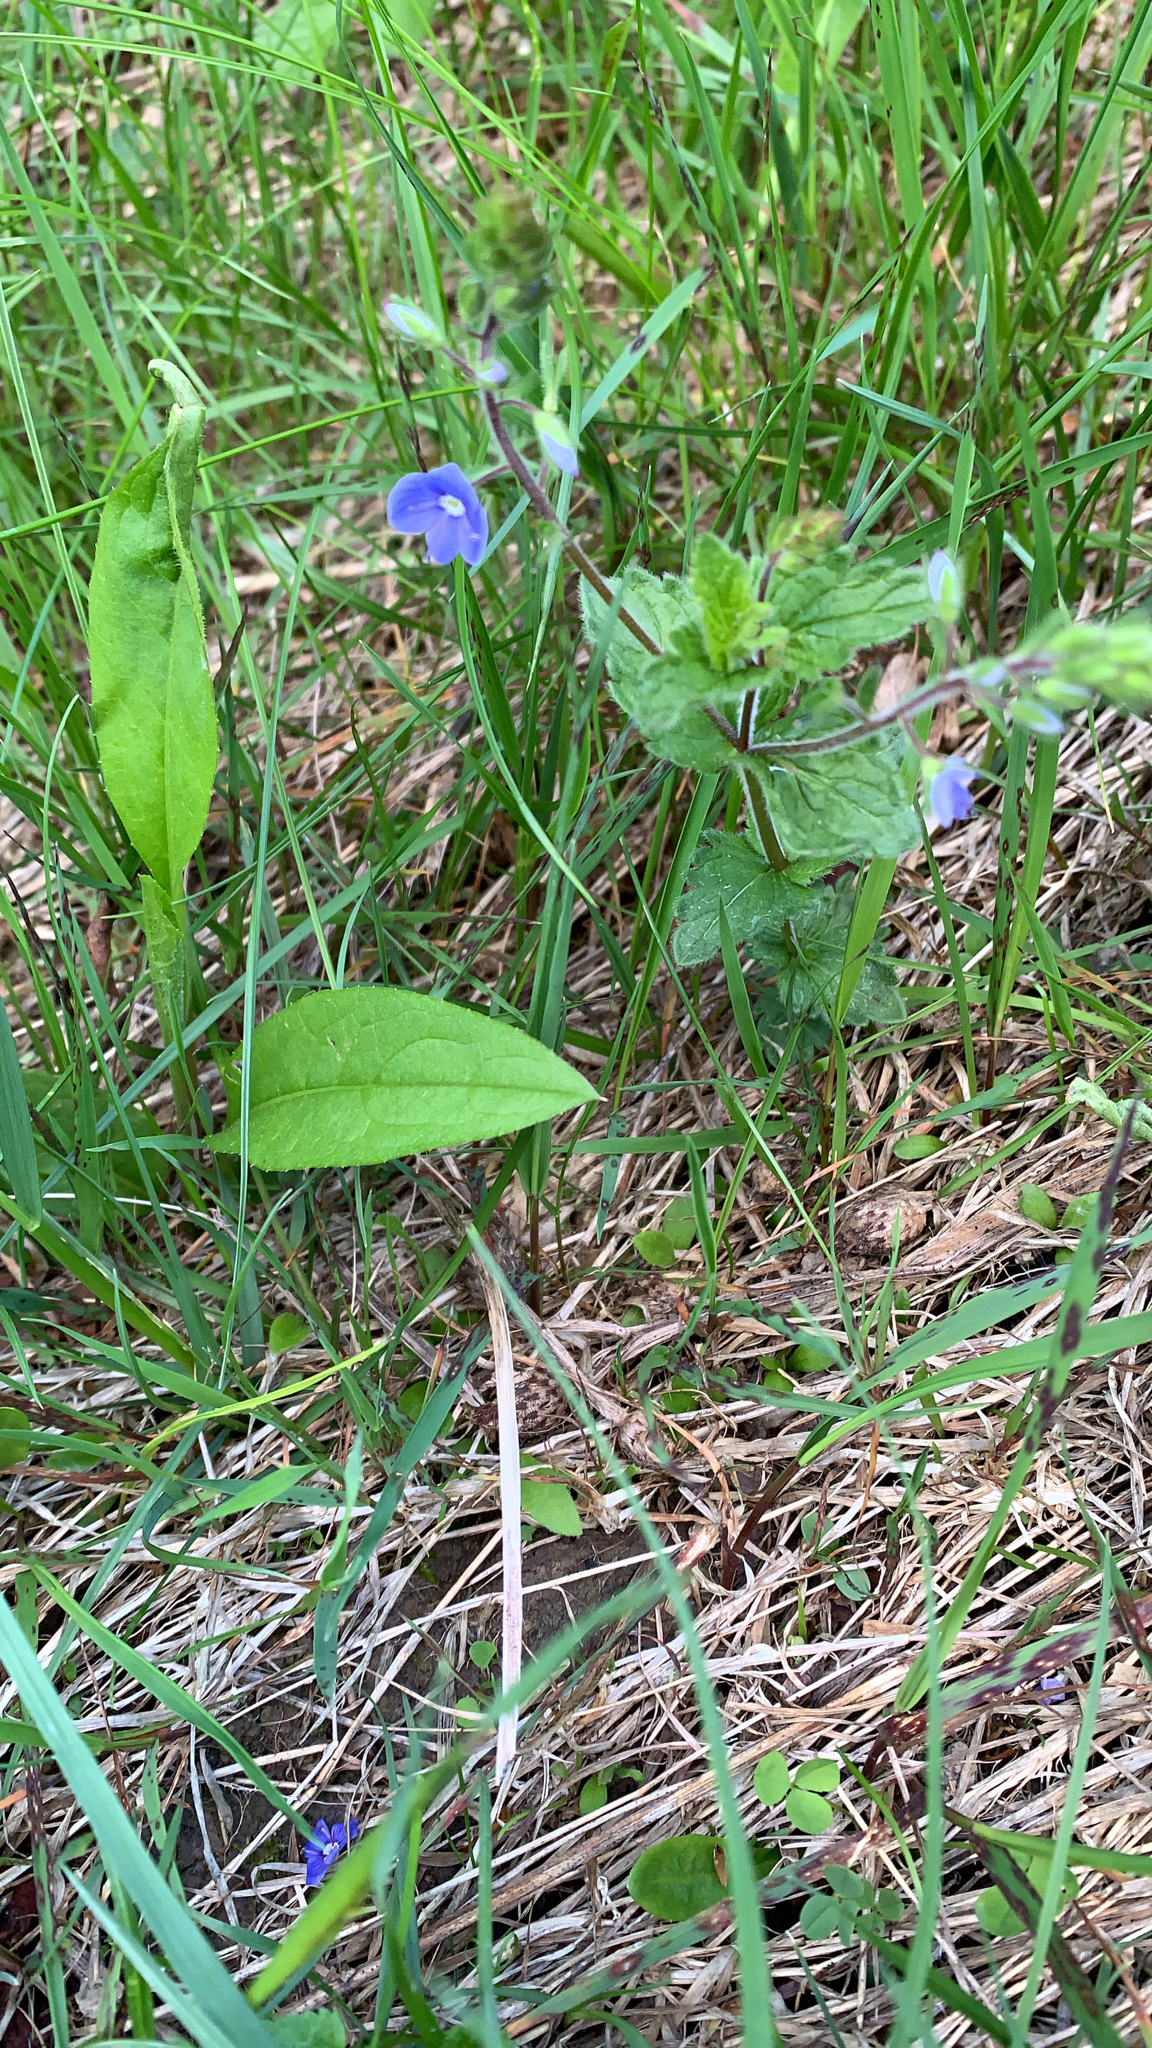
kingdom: Plantae
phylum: Tracheophyta
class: Magnoliopsida
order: Lamiales
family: Plantaginaceae
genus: Veronica
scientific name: Veronica chamaedrys
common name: Germander speedwell
